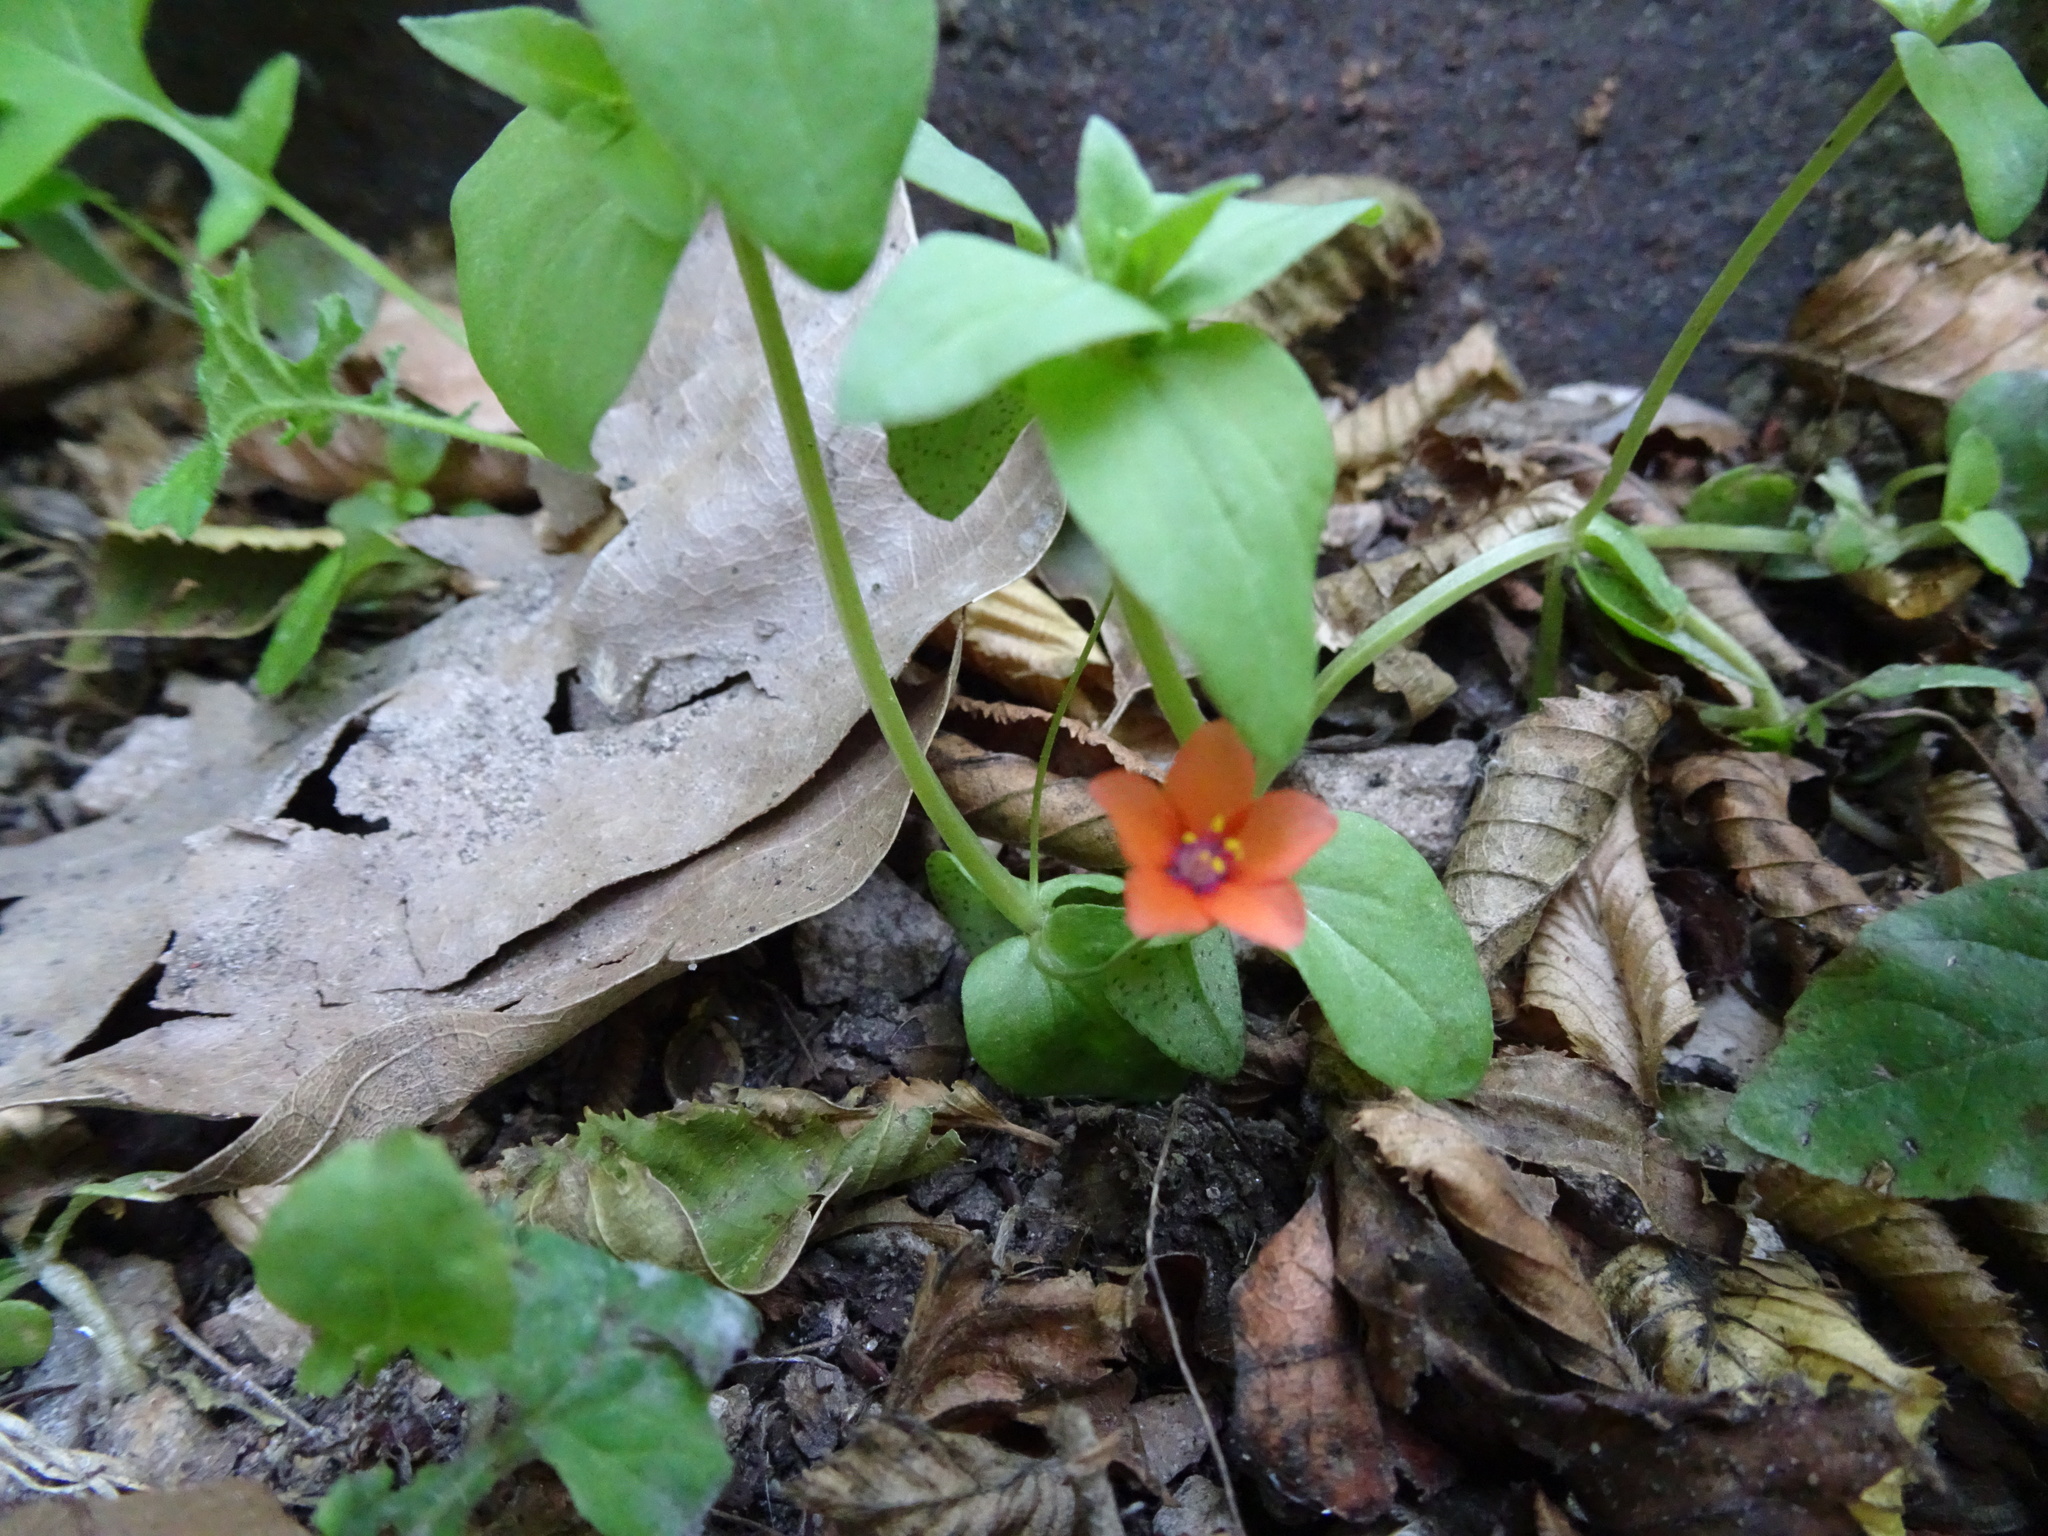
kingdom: Plantae
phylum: Tracheophyta
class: Magnoliopsida
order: Ericales
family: Primulaceae
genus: Lysimachia
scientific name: Lysimachia arvensis
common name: Scarlet pimpernel
